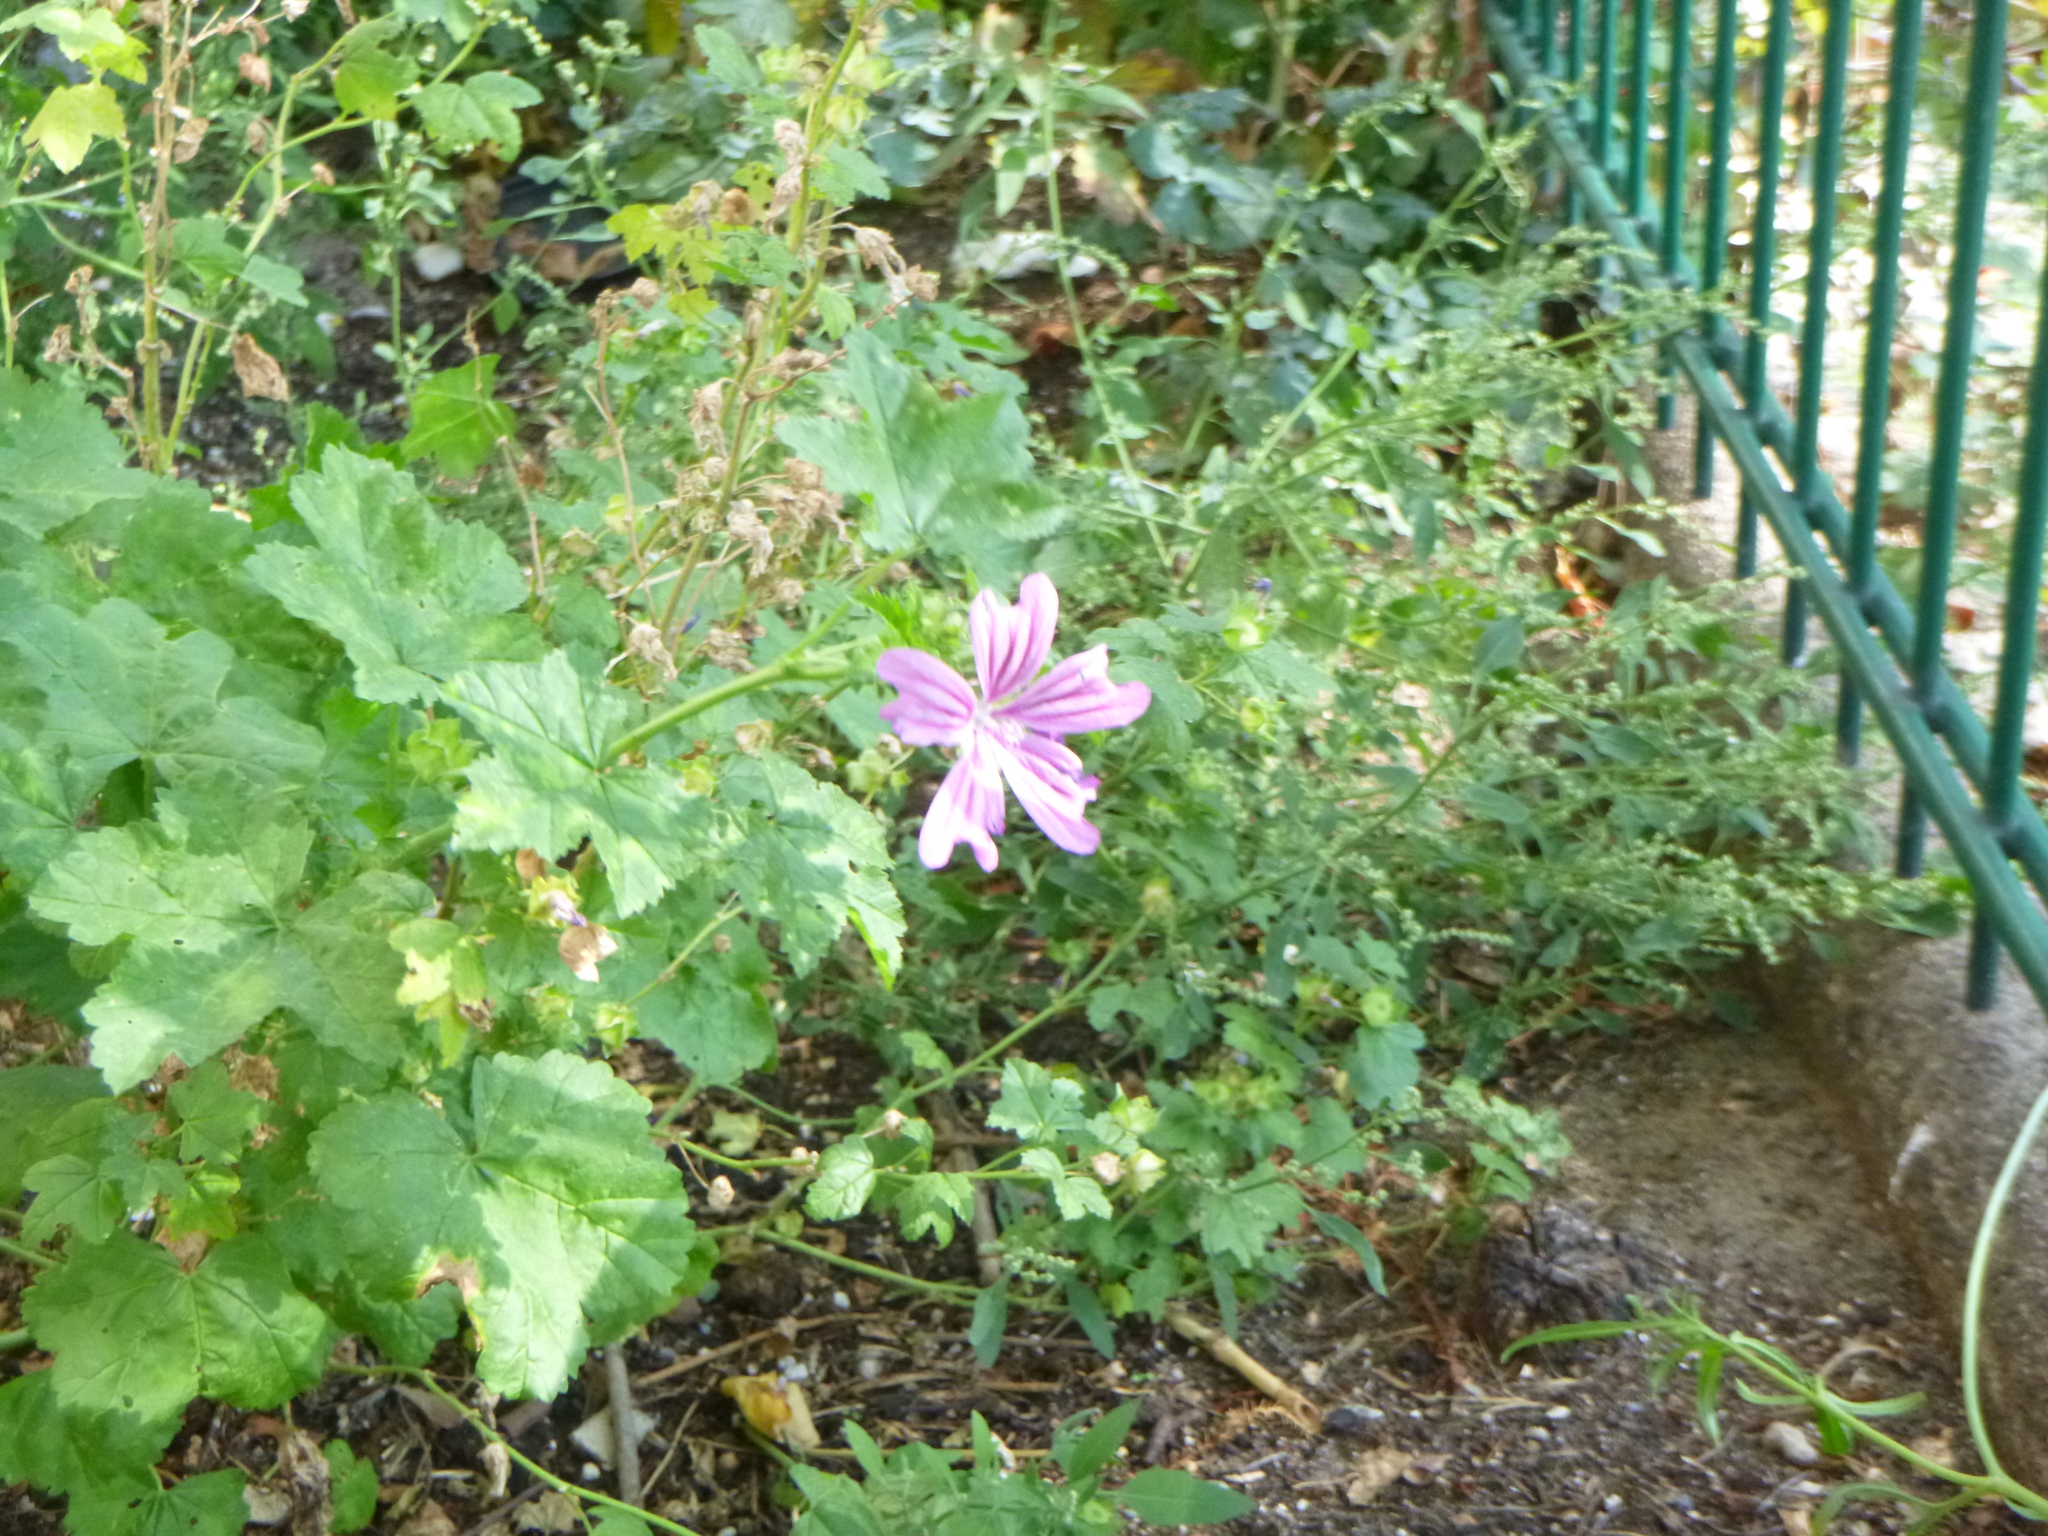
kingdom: Plantae
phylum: Tracheophyta
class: Magnoliopsida
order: Malvales
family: Malvaceae
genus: Malva
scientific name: Malva sylvestris
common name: Common mallow
